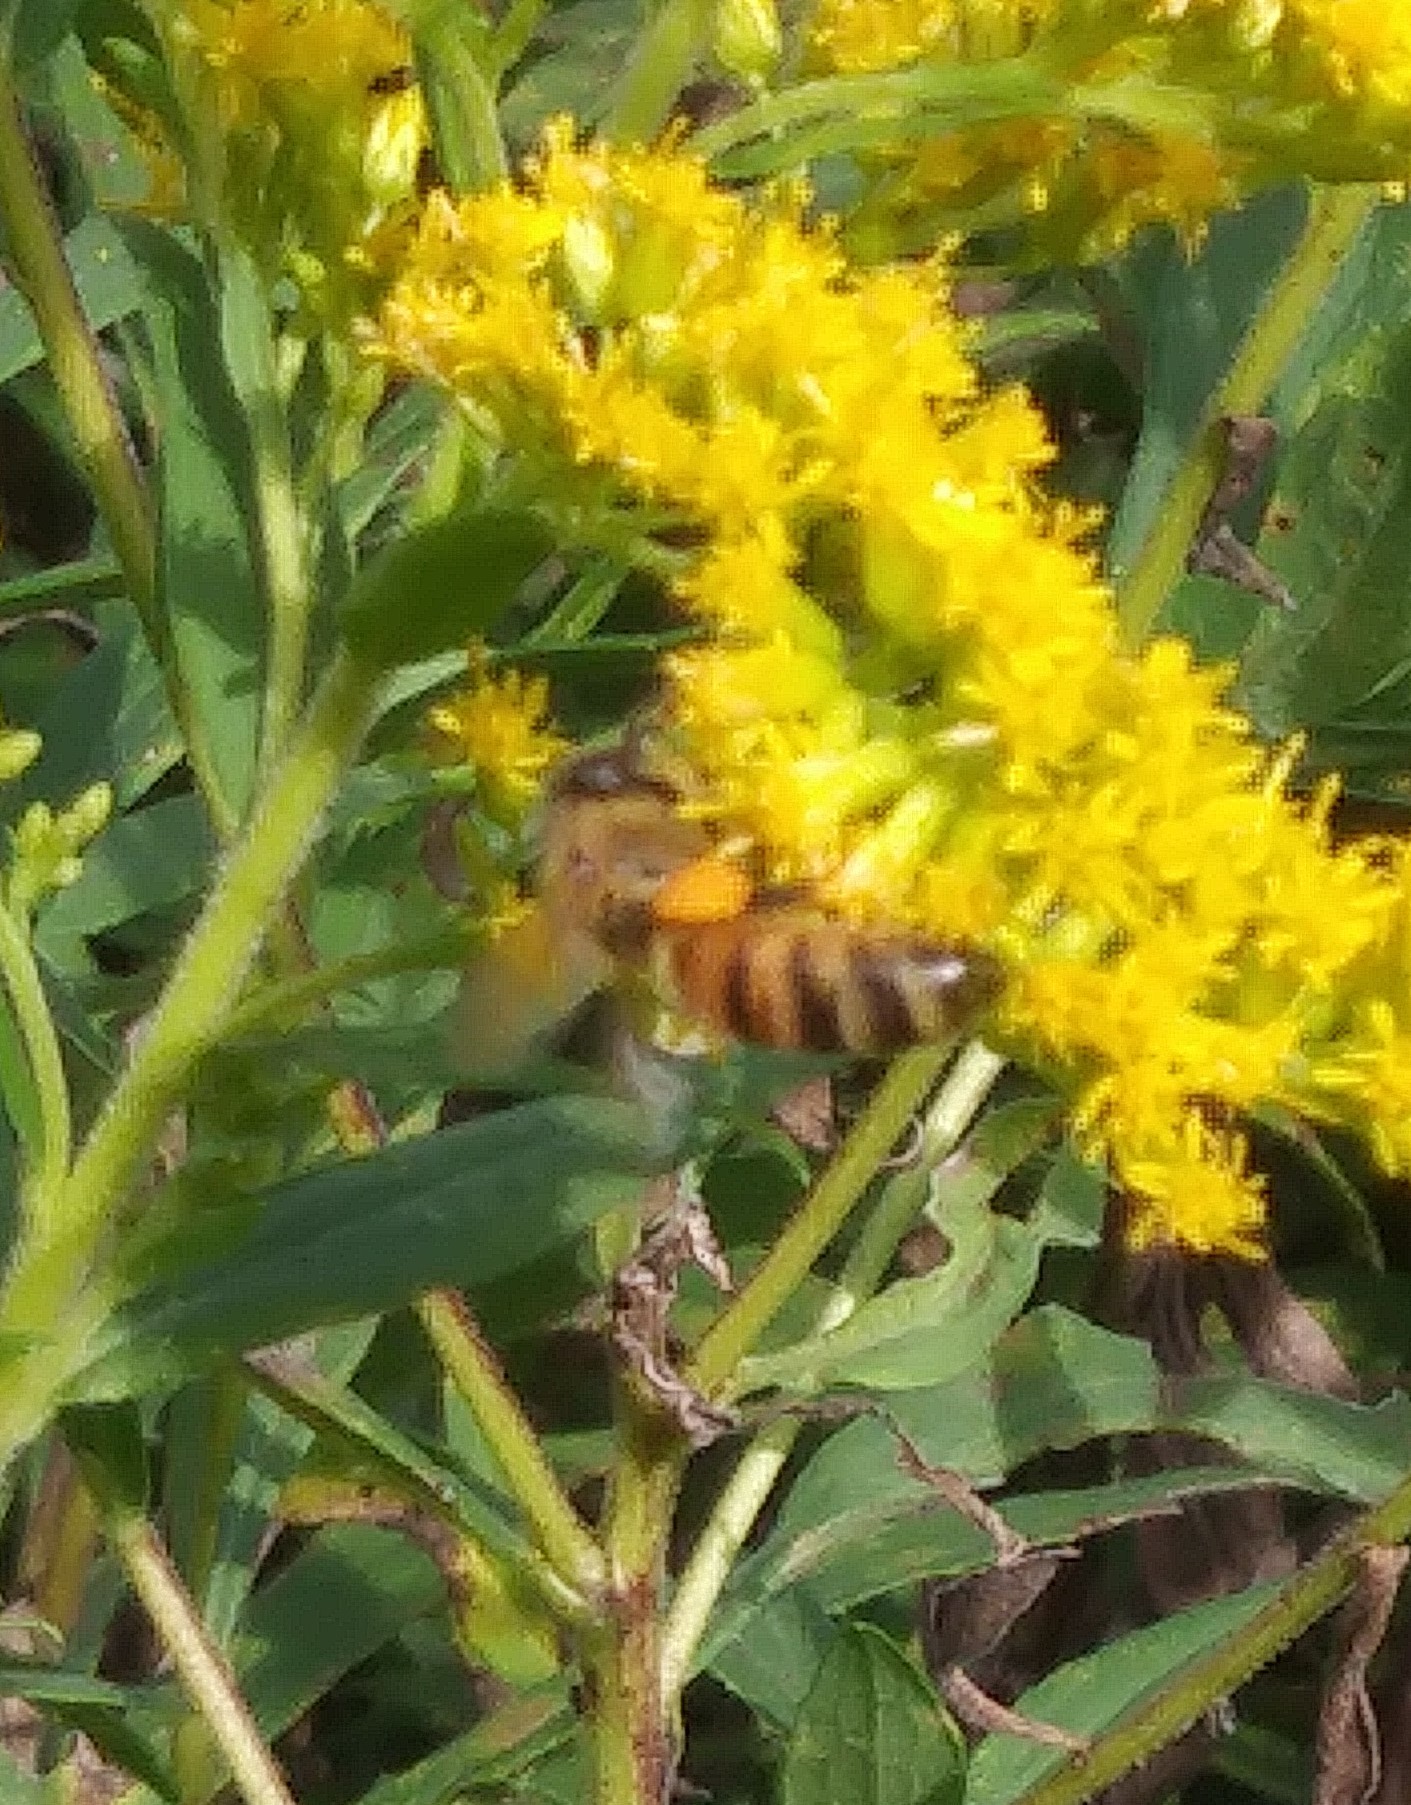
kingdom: Animalia
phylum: Arthropoda
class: Insecta
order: Hymenoptera
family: Apidae
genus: Apis
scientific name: Apis mellifera
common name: Honey bee
